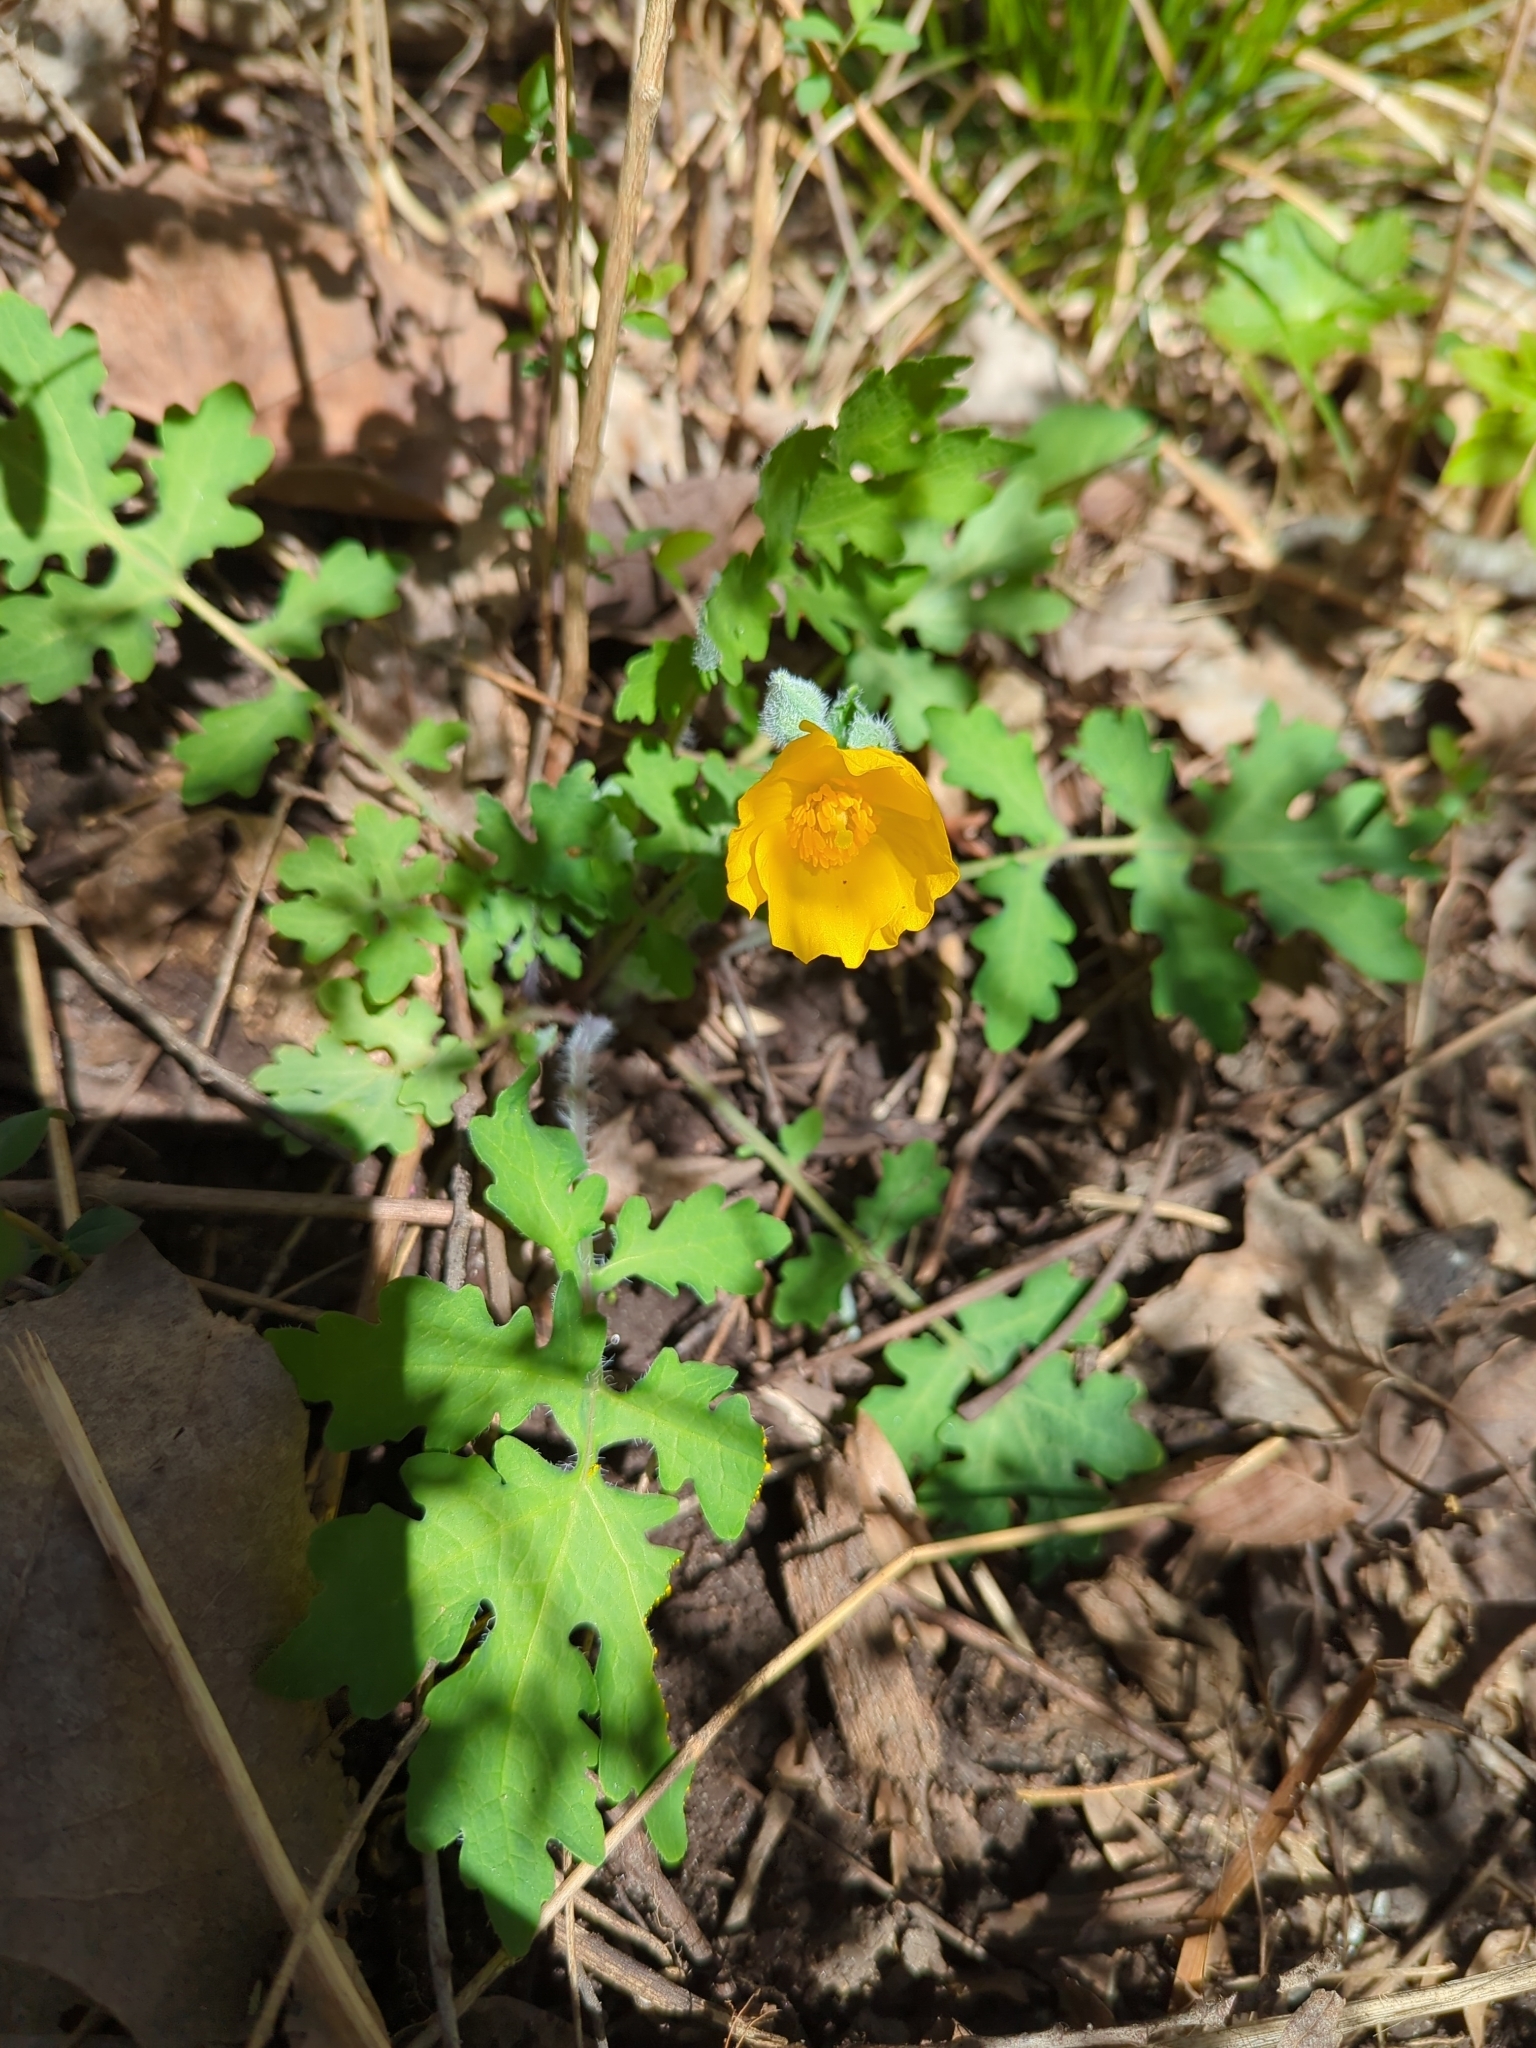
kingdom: Plantae
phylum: Tracheophyta
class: Magnoliopsida
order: Ranunculales
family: Papaveraceae
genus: Stylophorum
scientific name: Stylophorum diphyllum
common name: Celandine poppy
